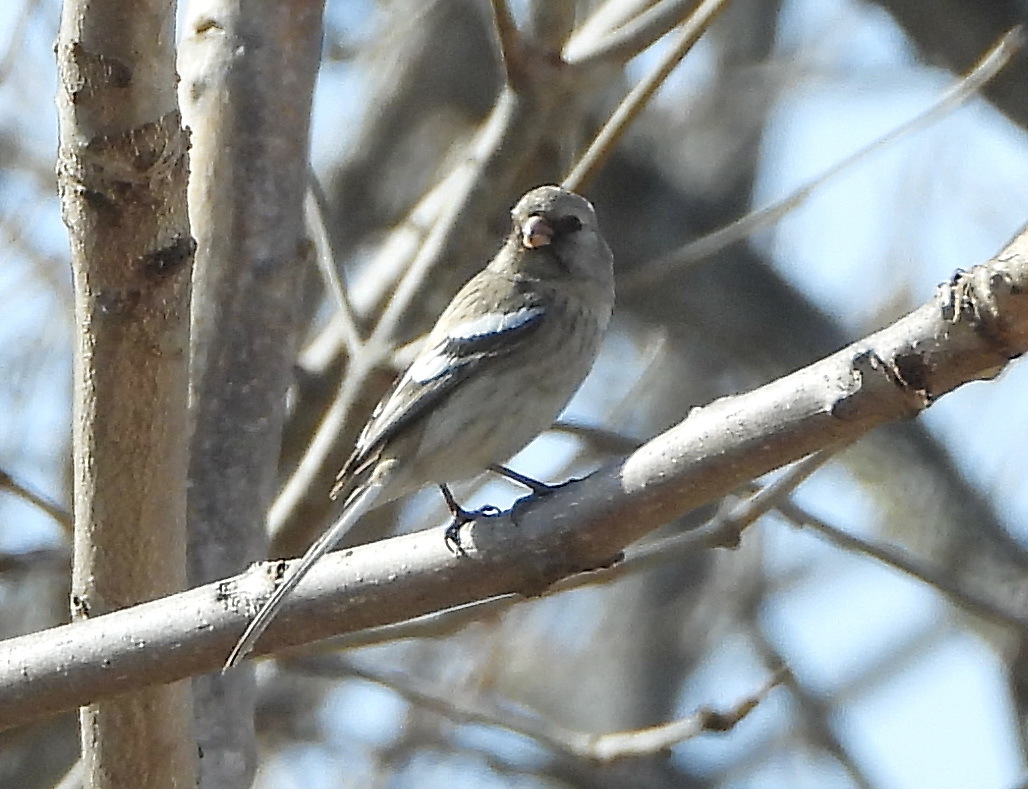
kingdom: Animalia
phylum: Chordata
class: Aves
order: Passeriformes
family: Fringillidae
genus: Carpodacus
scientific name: Carpodacus sibiricus
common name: Long-tailed rosefinch
